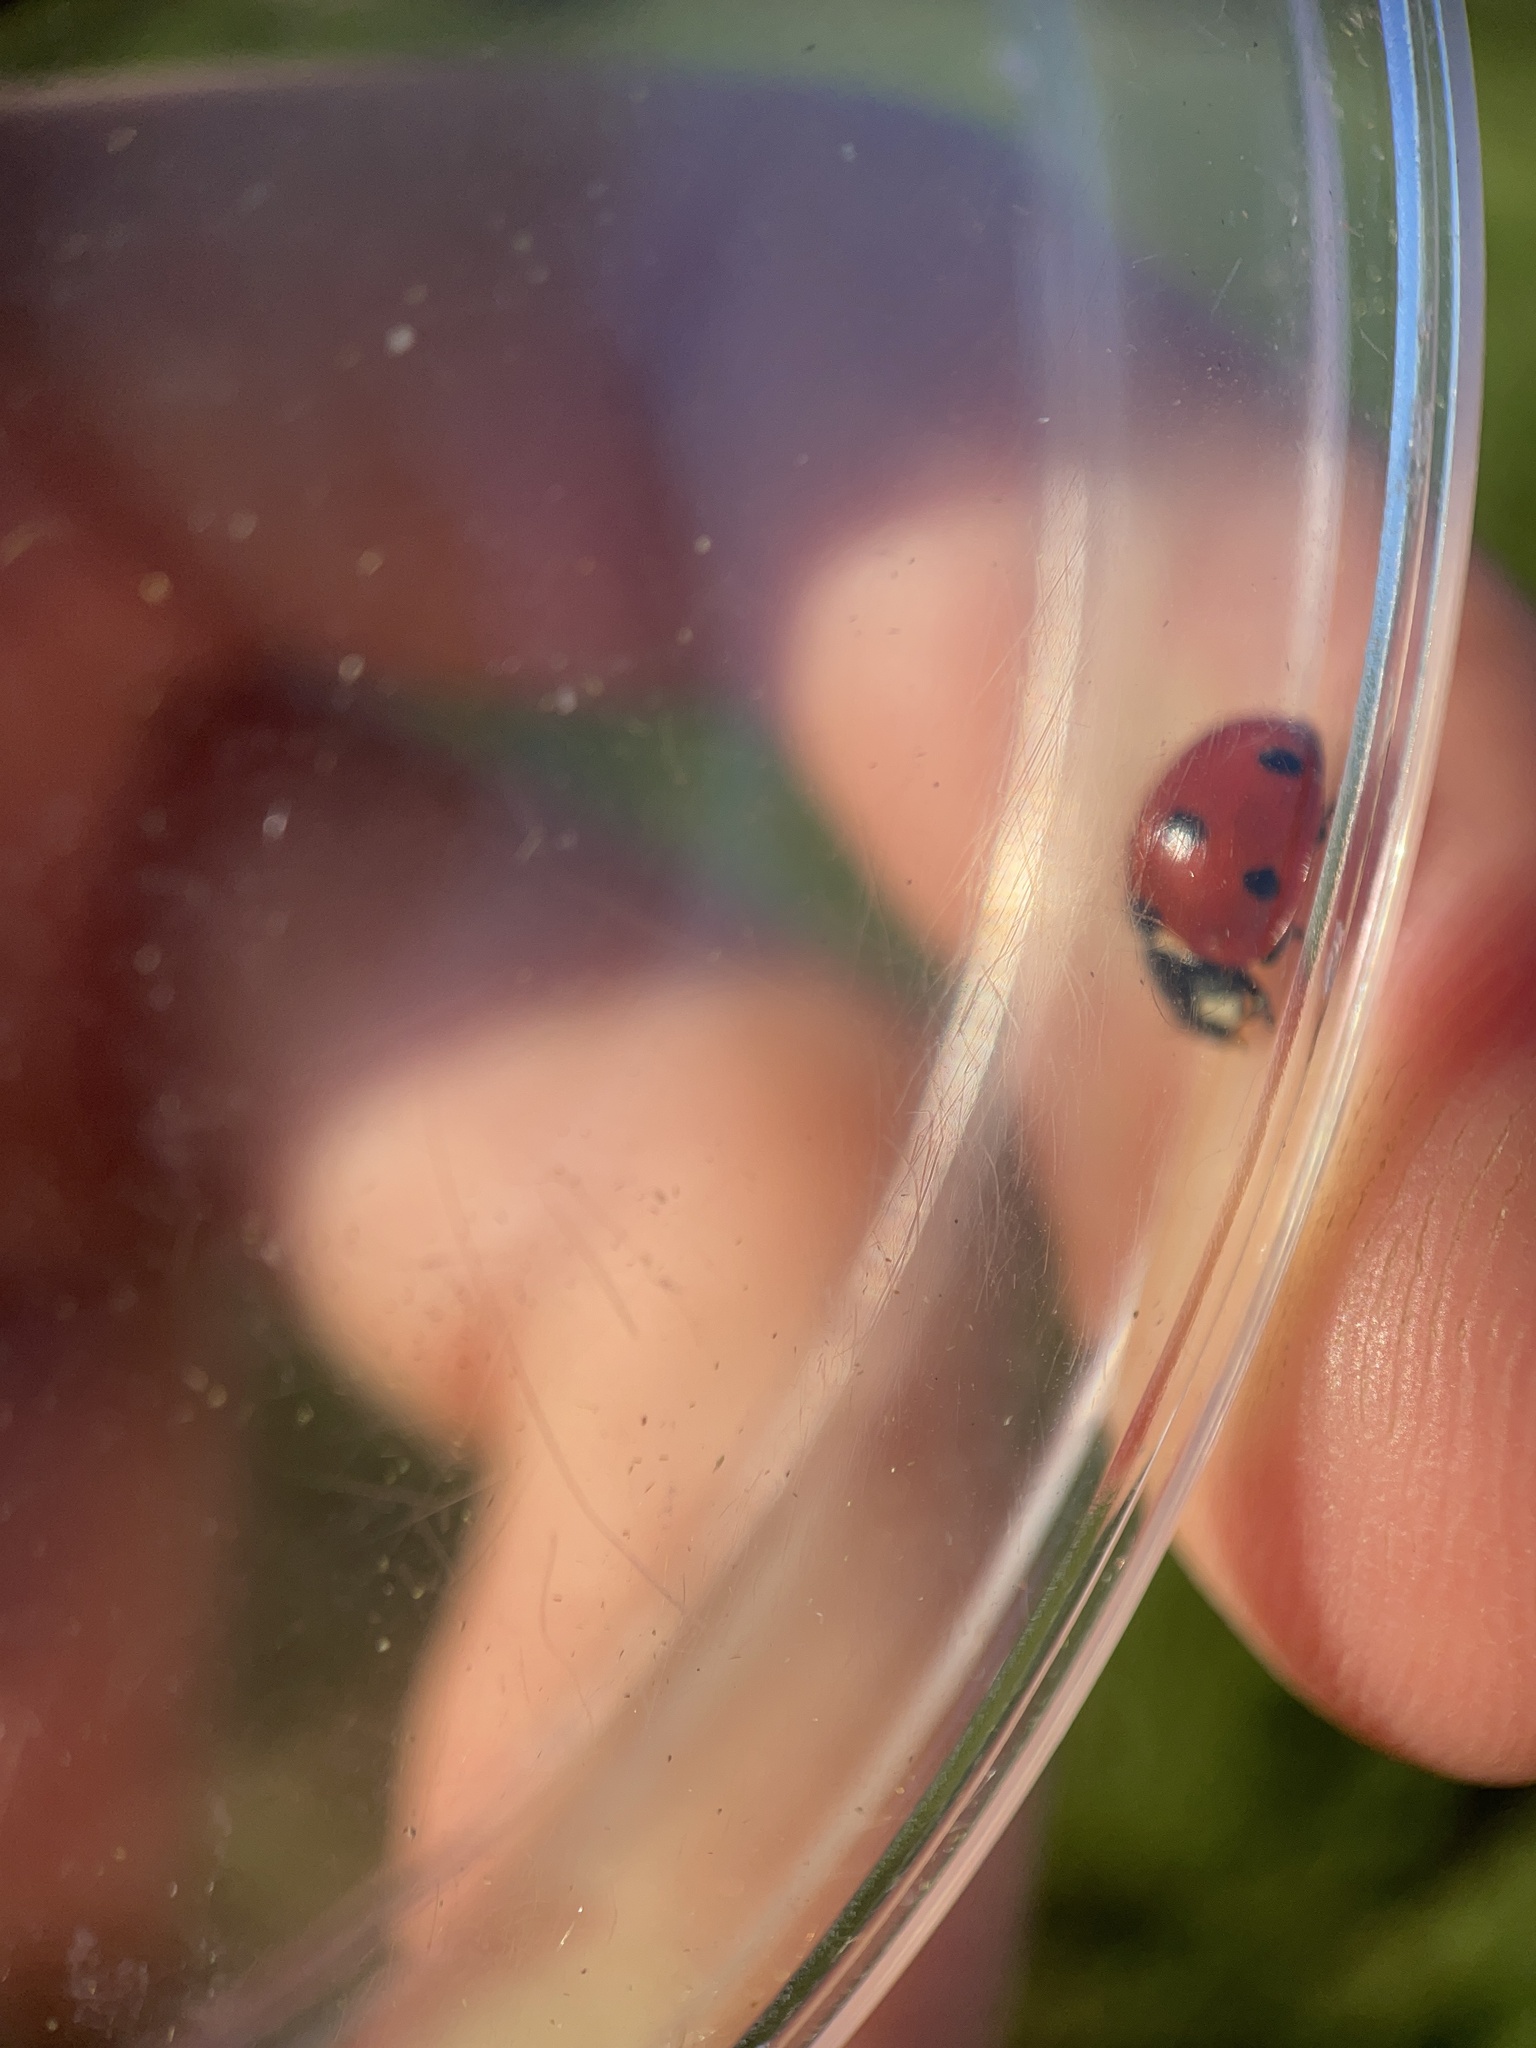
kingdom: Animalia
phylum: Arthropoda
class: Insecta
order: Coleoptera
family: Coccinellidae
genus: Coccinella
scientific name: Coccinella septempunctata
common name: Sevenspotted lady beetle
